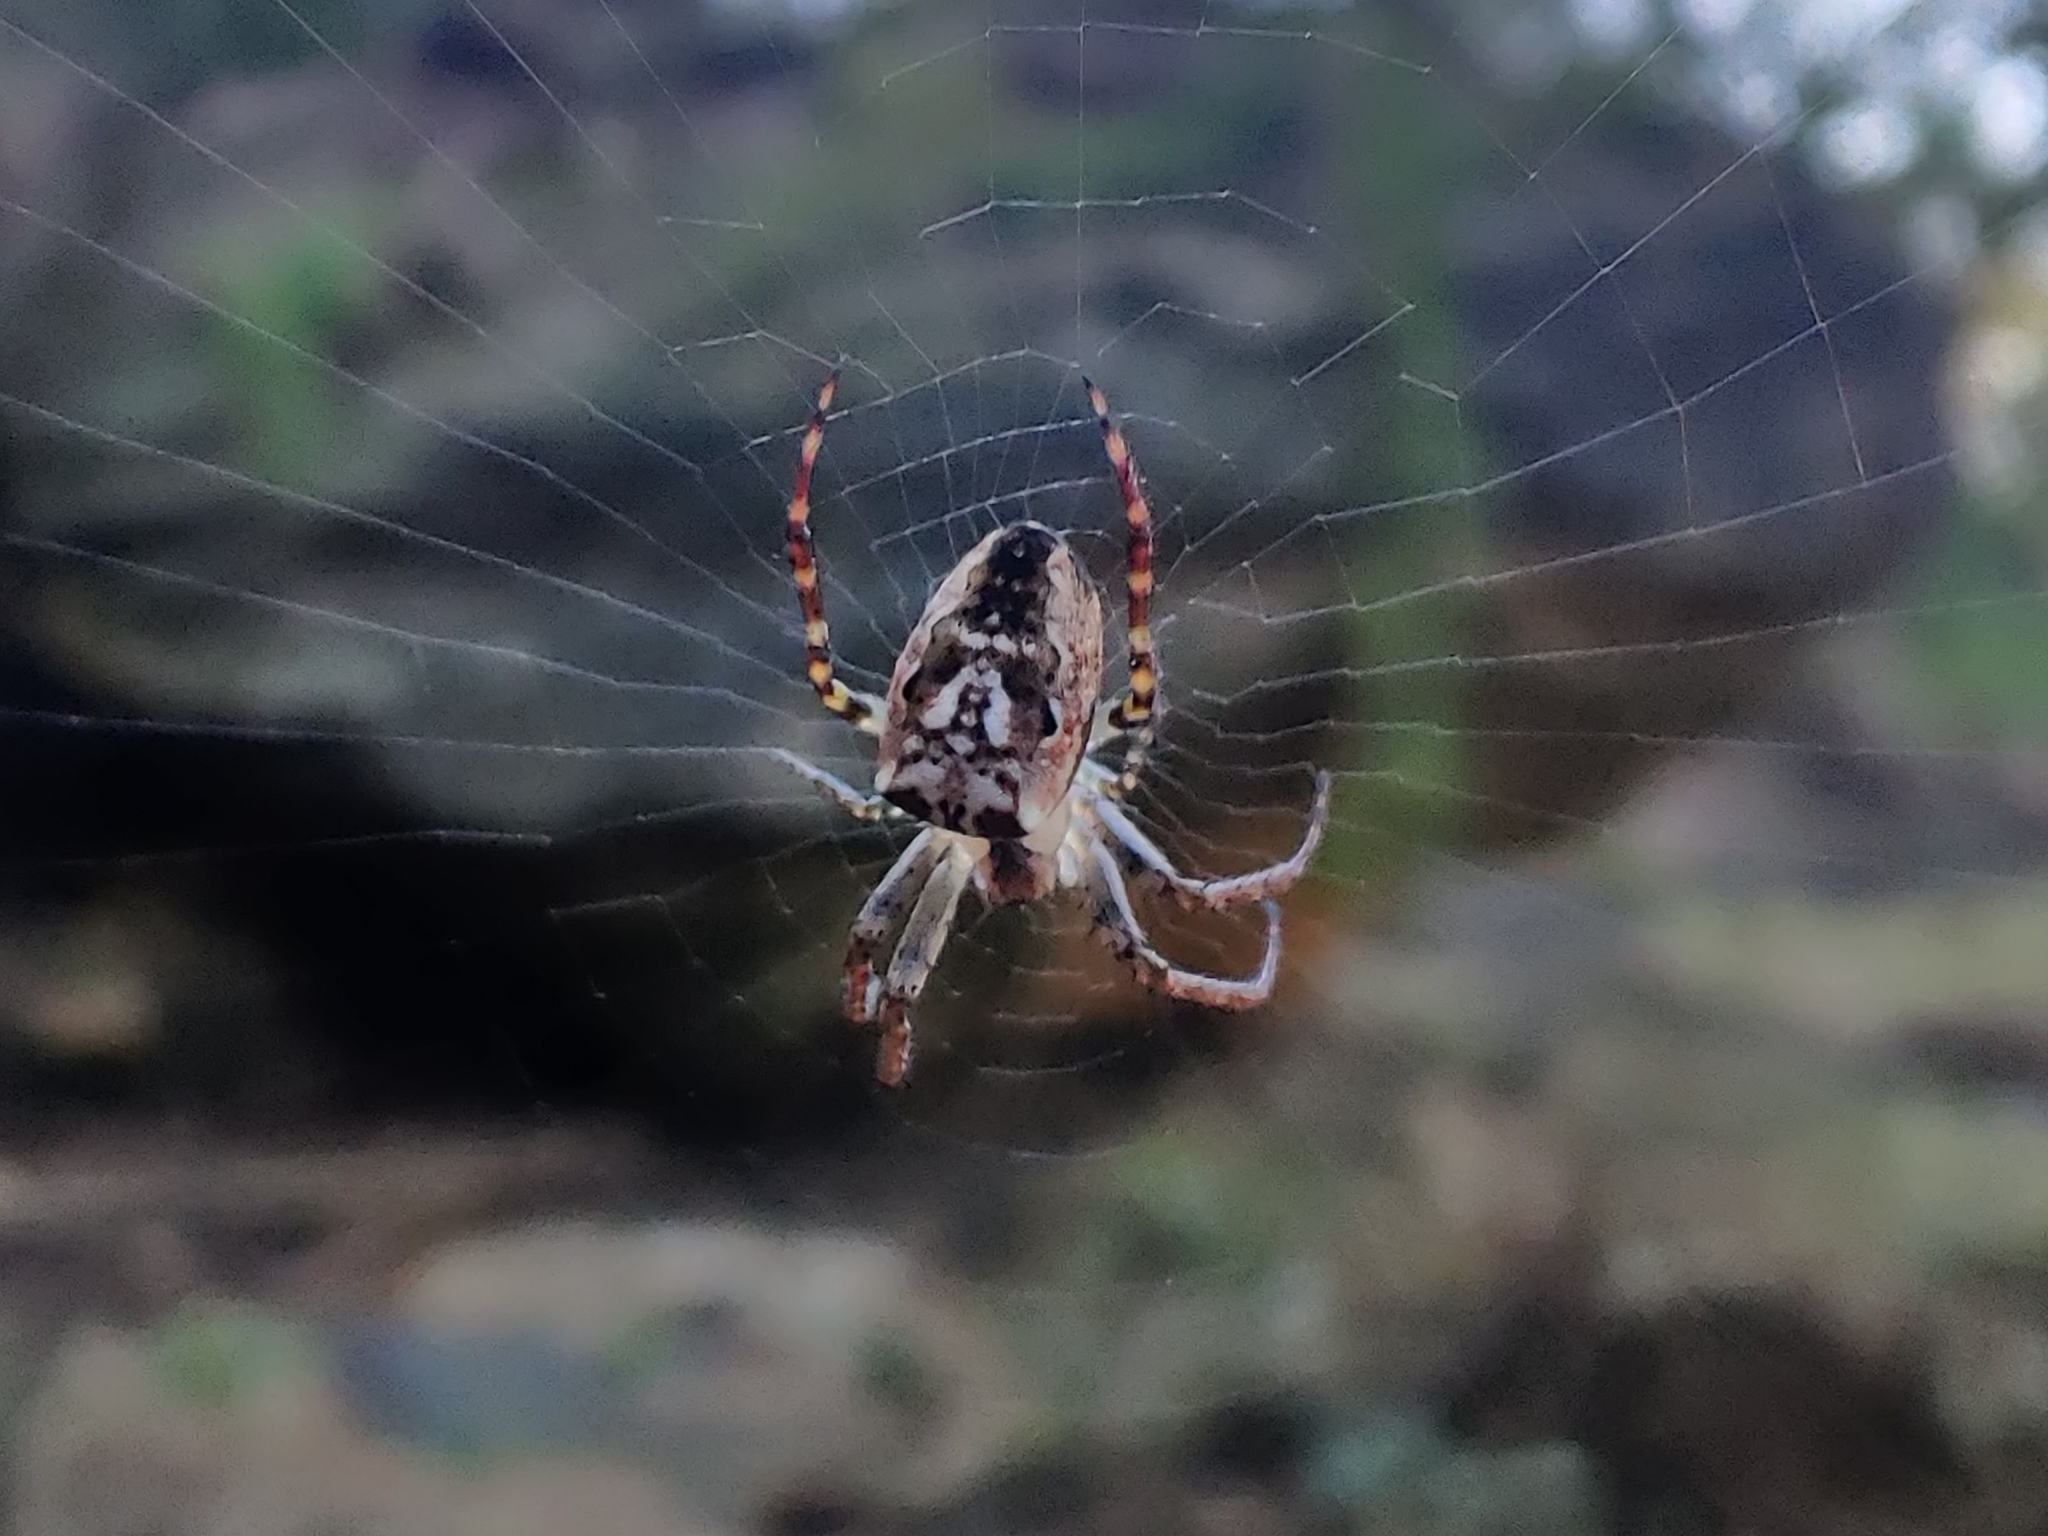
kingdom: Animalia
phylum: Arthropoda
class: Arachnida
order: Araneae
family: Araneidae
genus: Plebs
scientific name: Plebs eburnus
